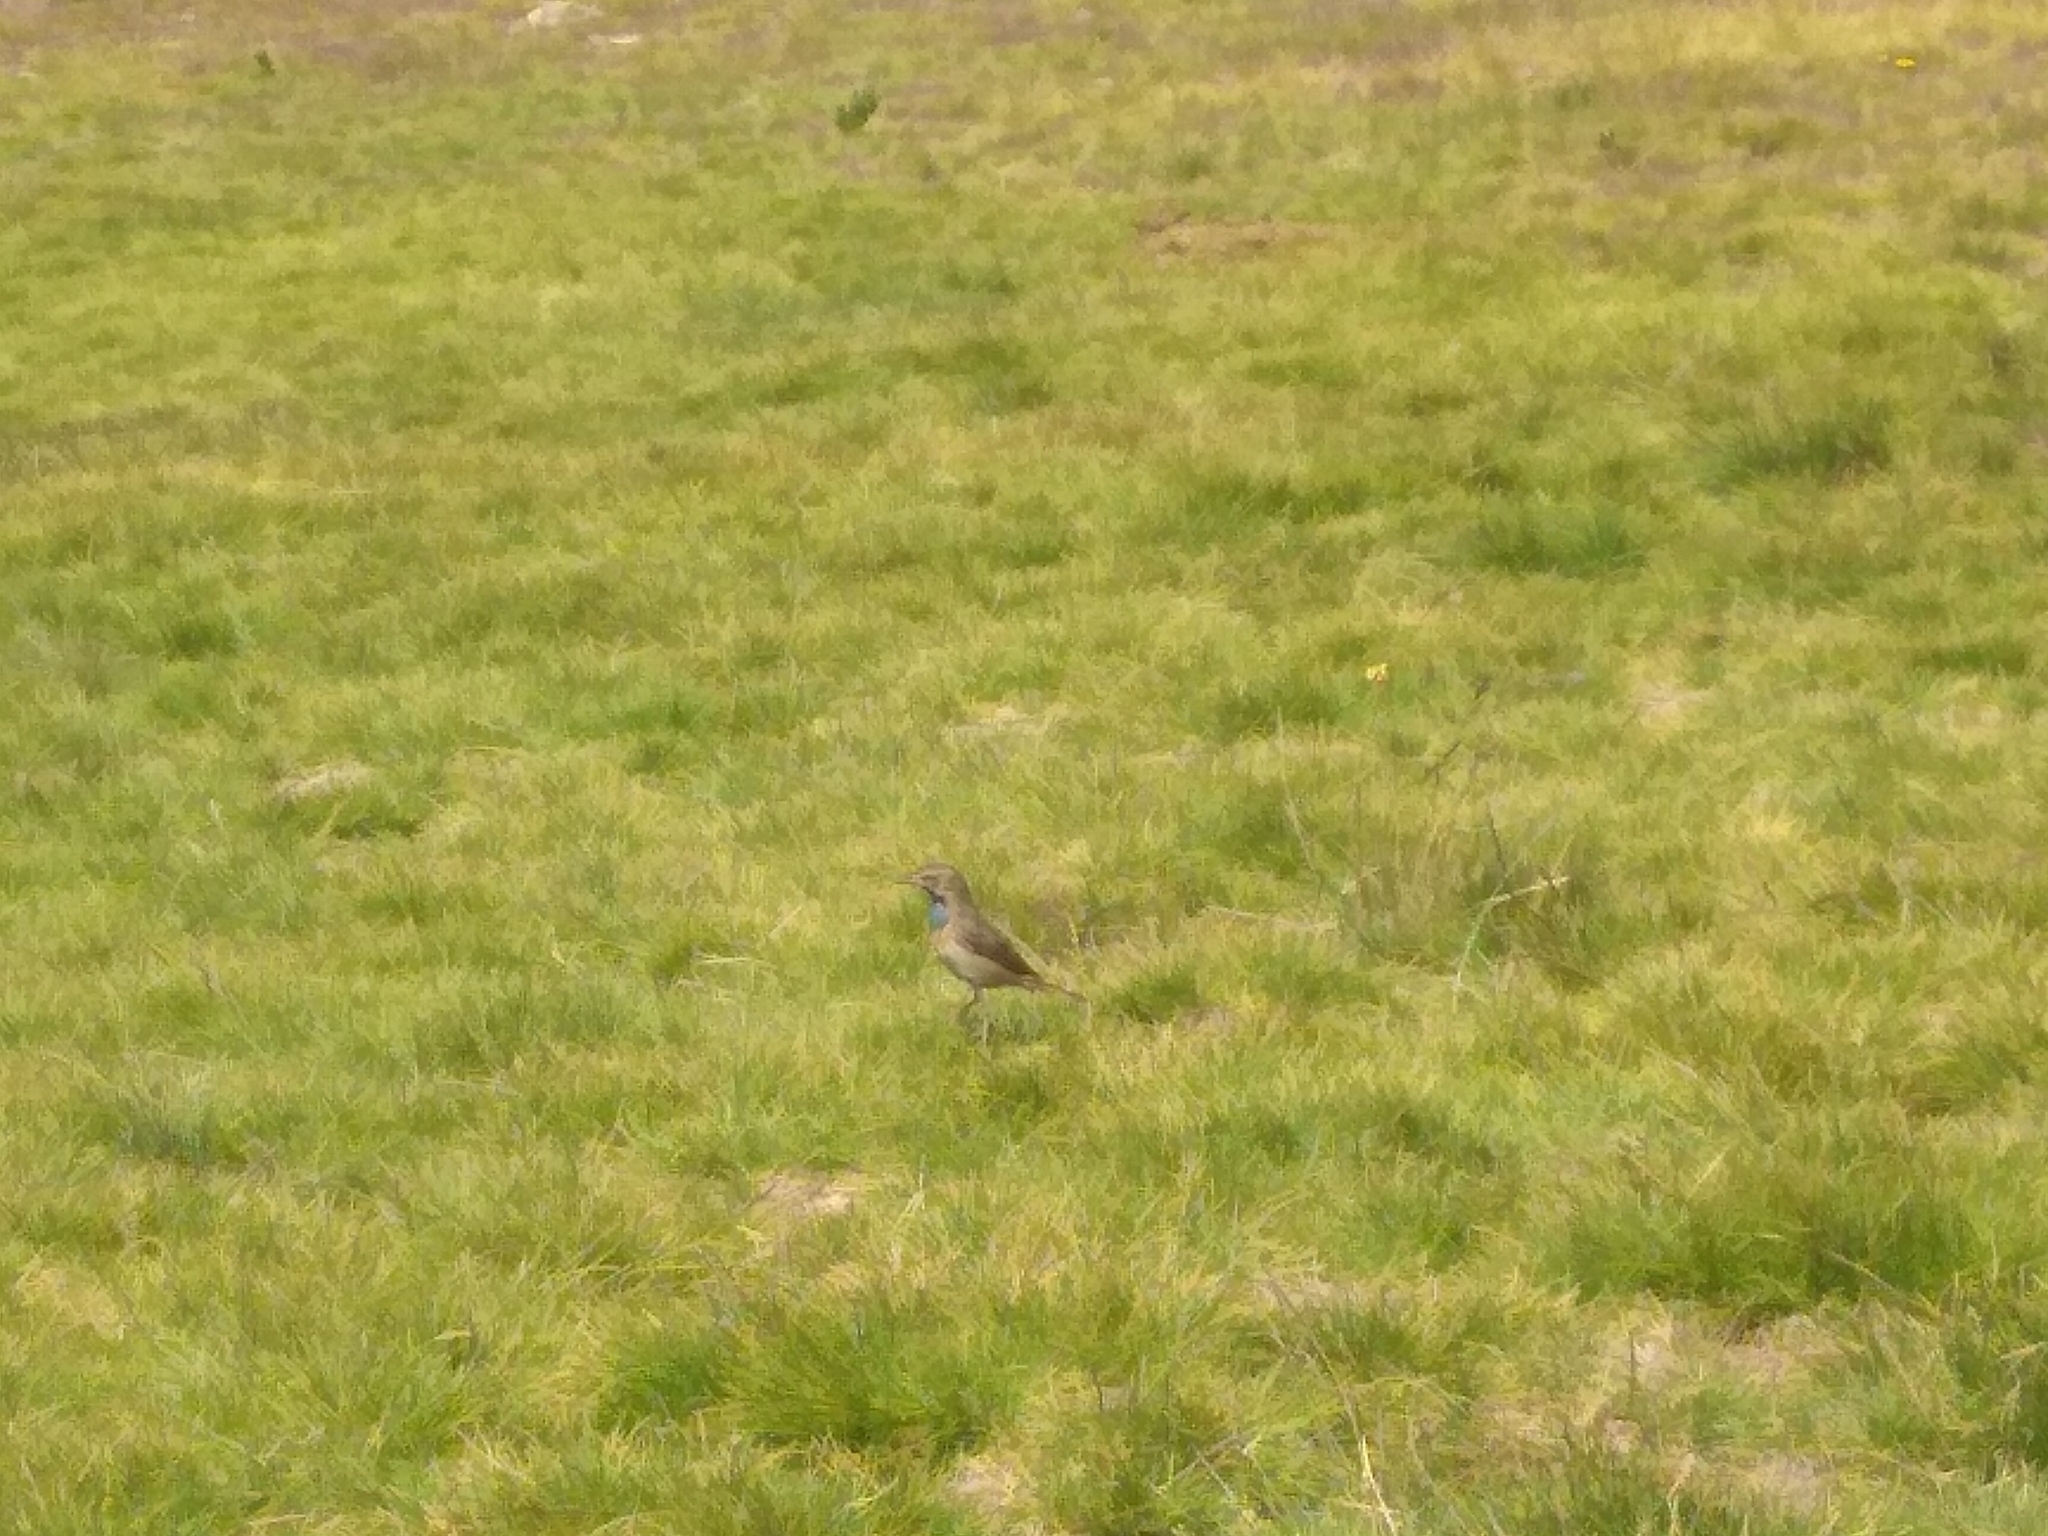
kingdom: Animalia
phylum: Chordata
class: Aves
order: Passeriformes
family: Muscicapidae
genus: Luscinia
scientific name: Luscinia svecica
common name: Bluethroat
